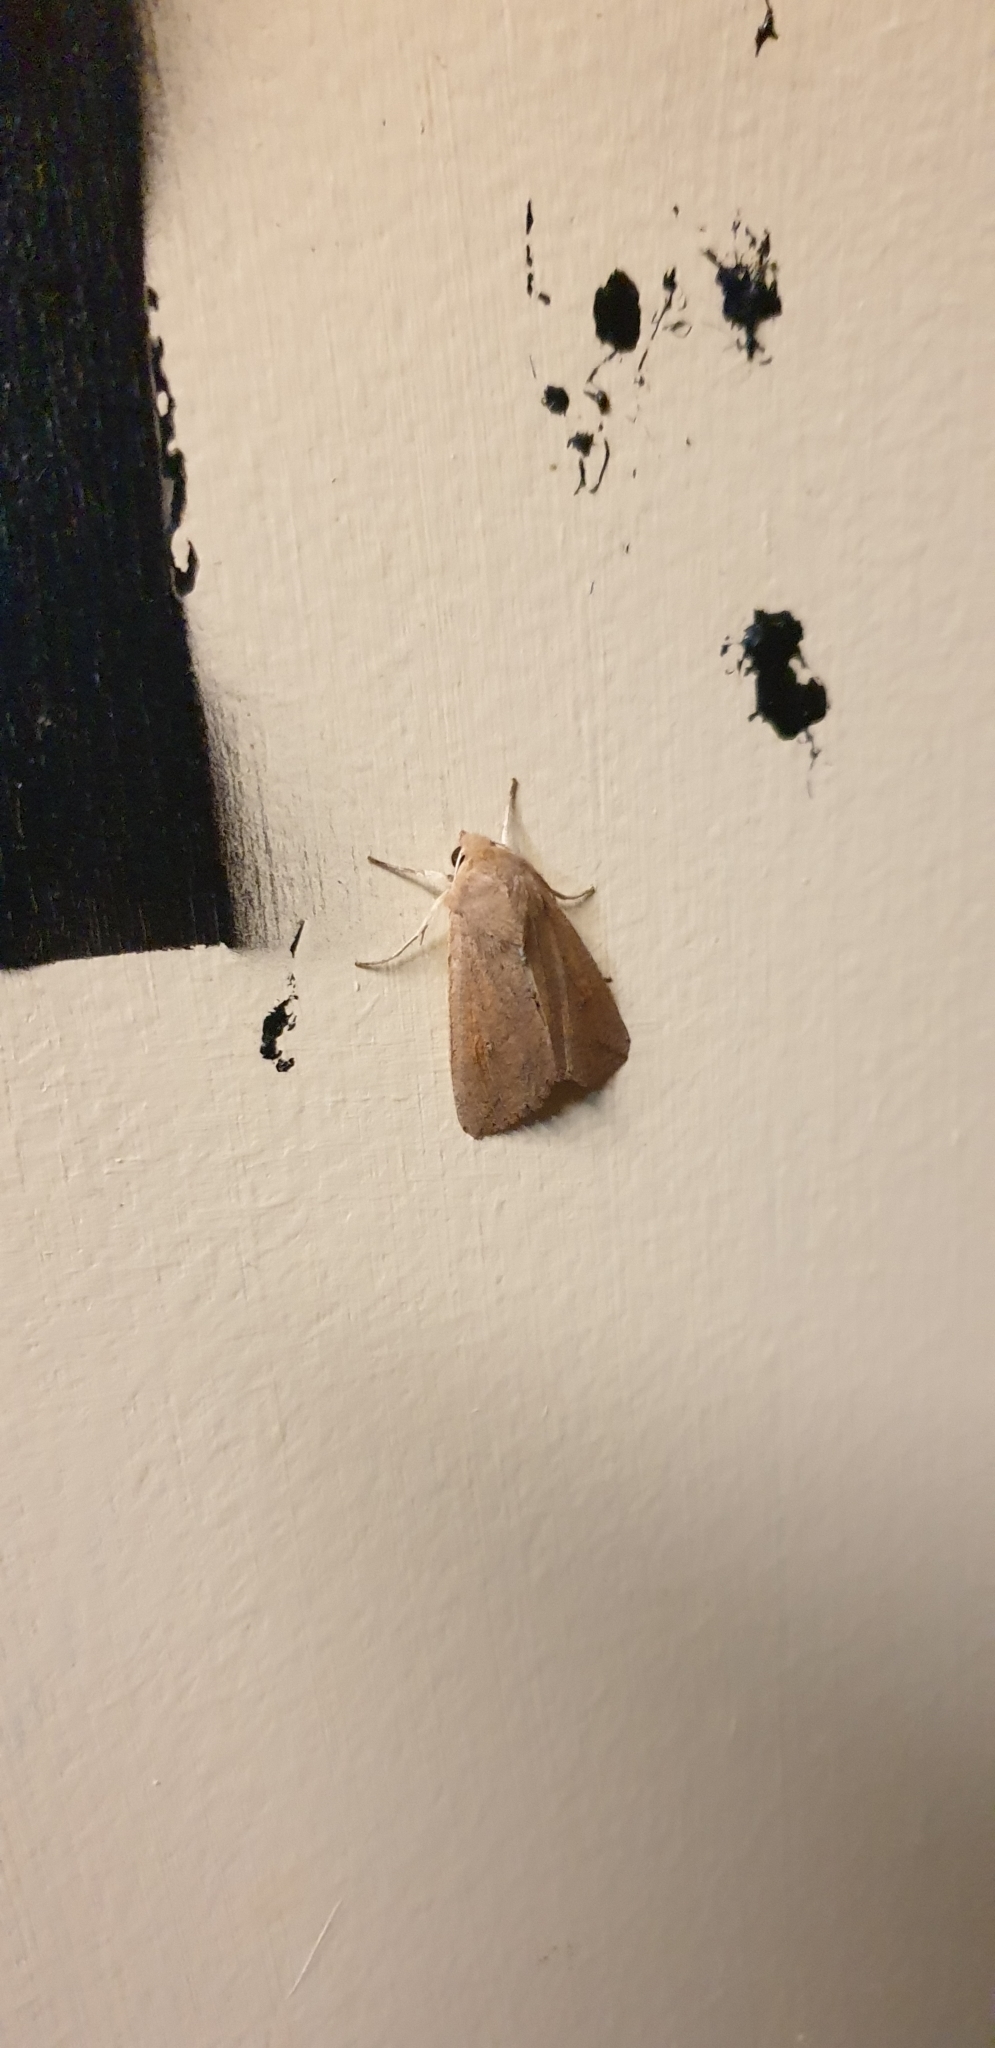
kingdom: Animalia
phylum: Arthropoda
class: Insecta
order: Lepidoptera
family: Noctuidae
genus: Mythimna
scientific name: Mythimna convecta
